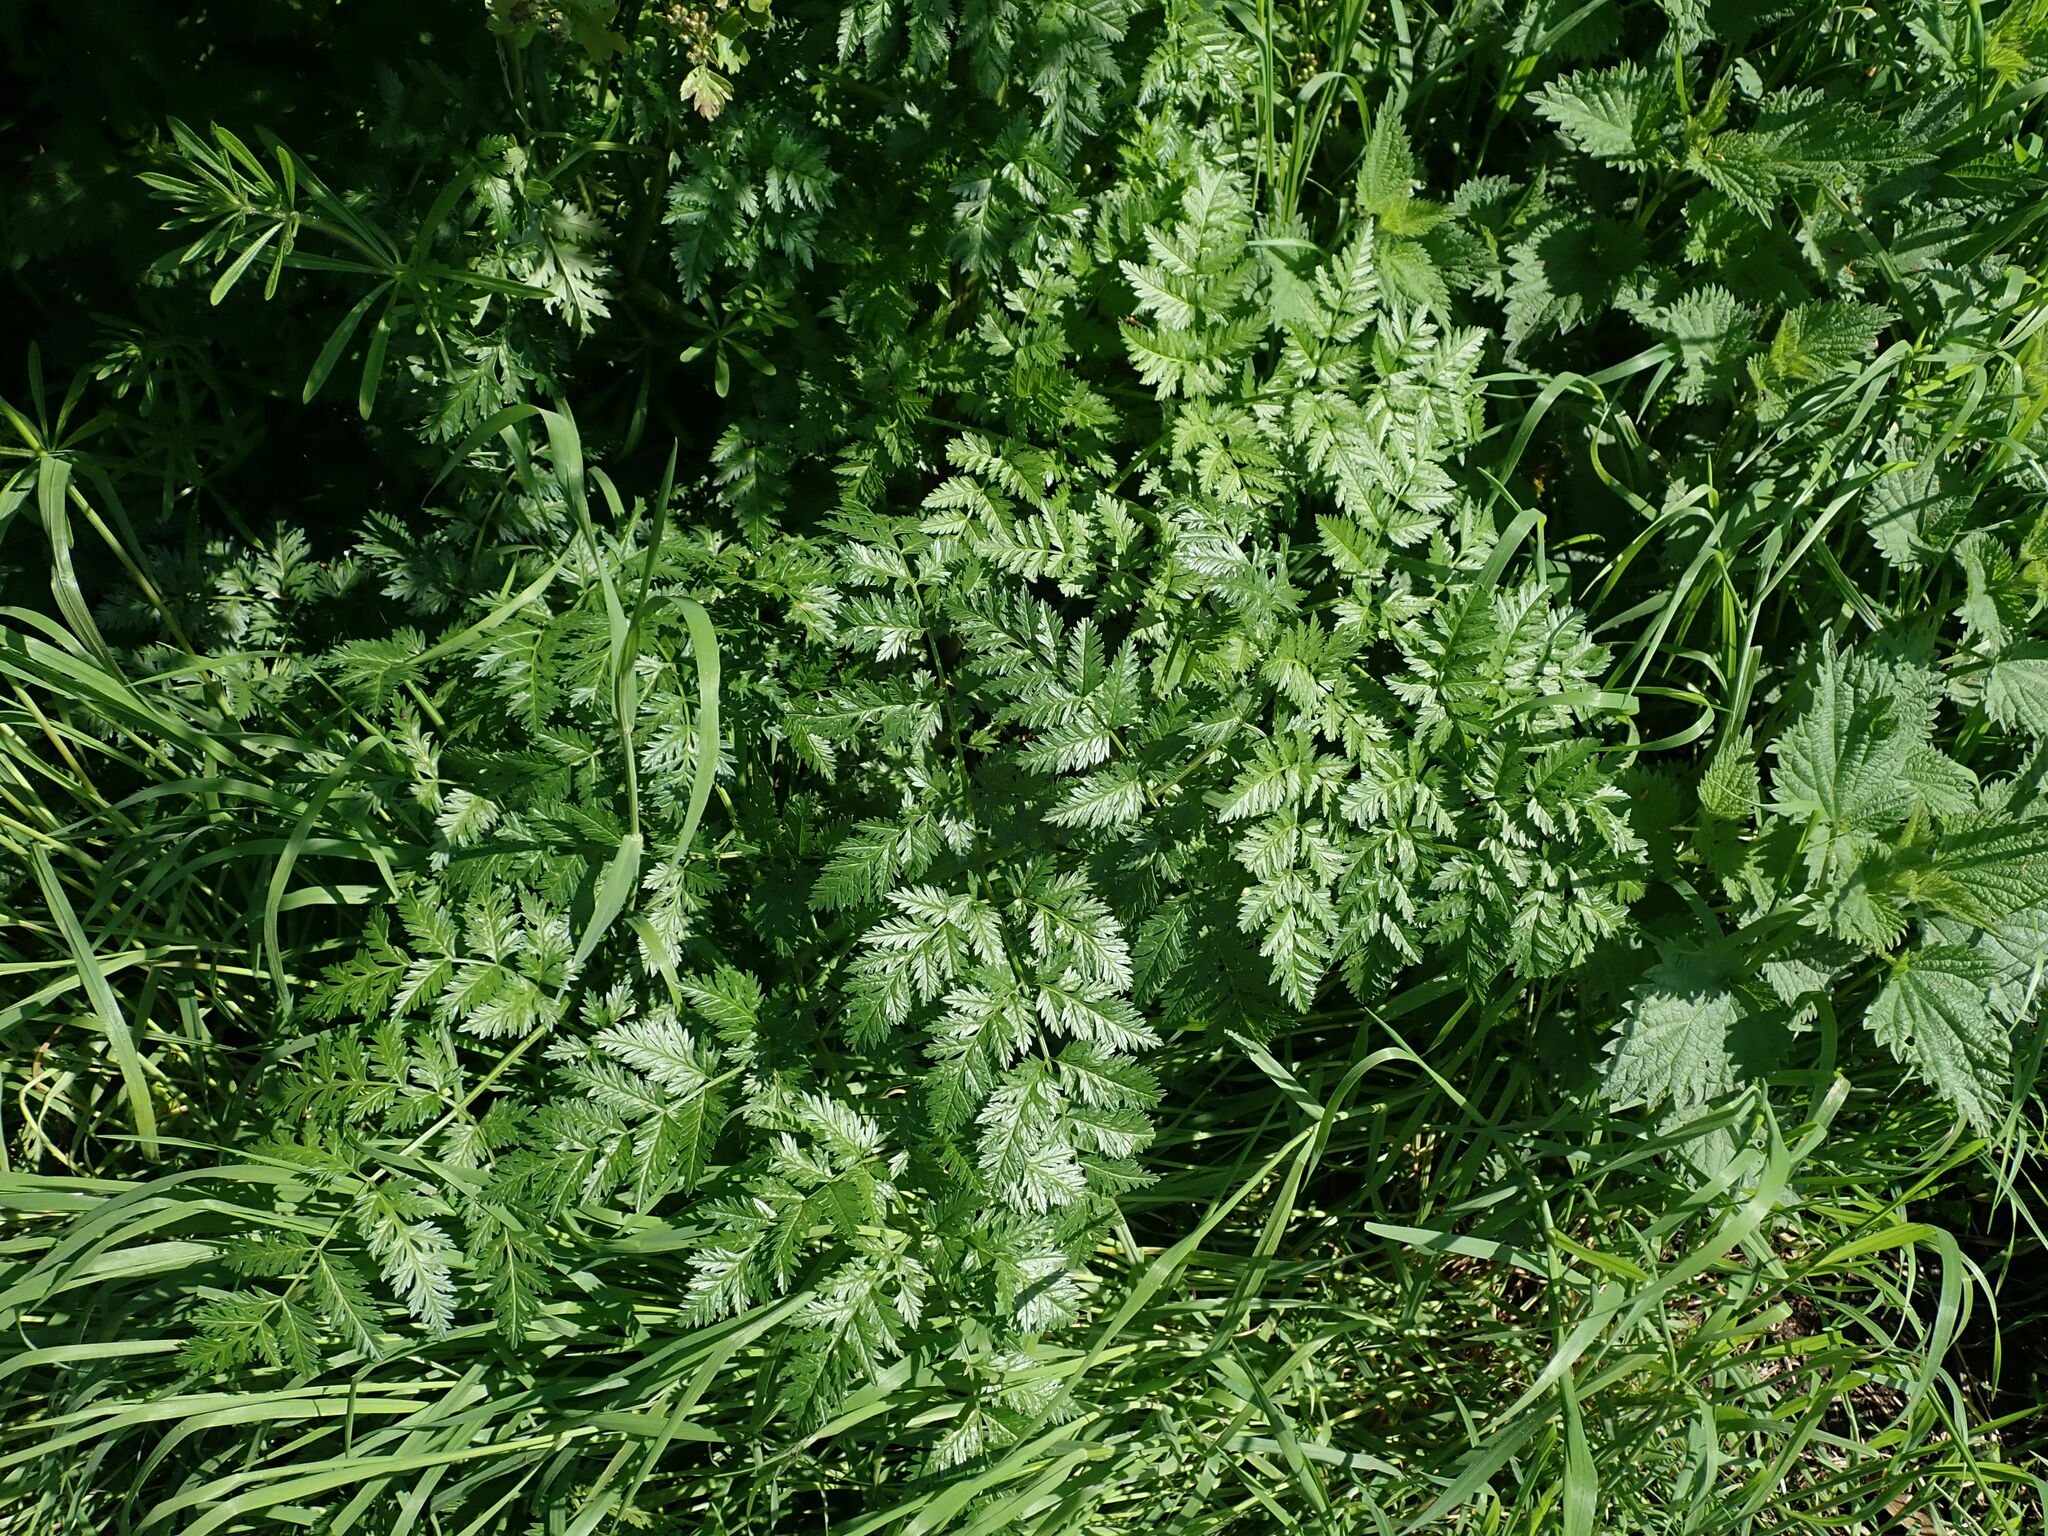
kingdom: Plantae
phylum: Tracheophyta
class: Magnoliopsida
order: Apiales
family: Apiaceae
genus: Conium
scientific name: Conium maculatum
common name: Hemlock
